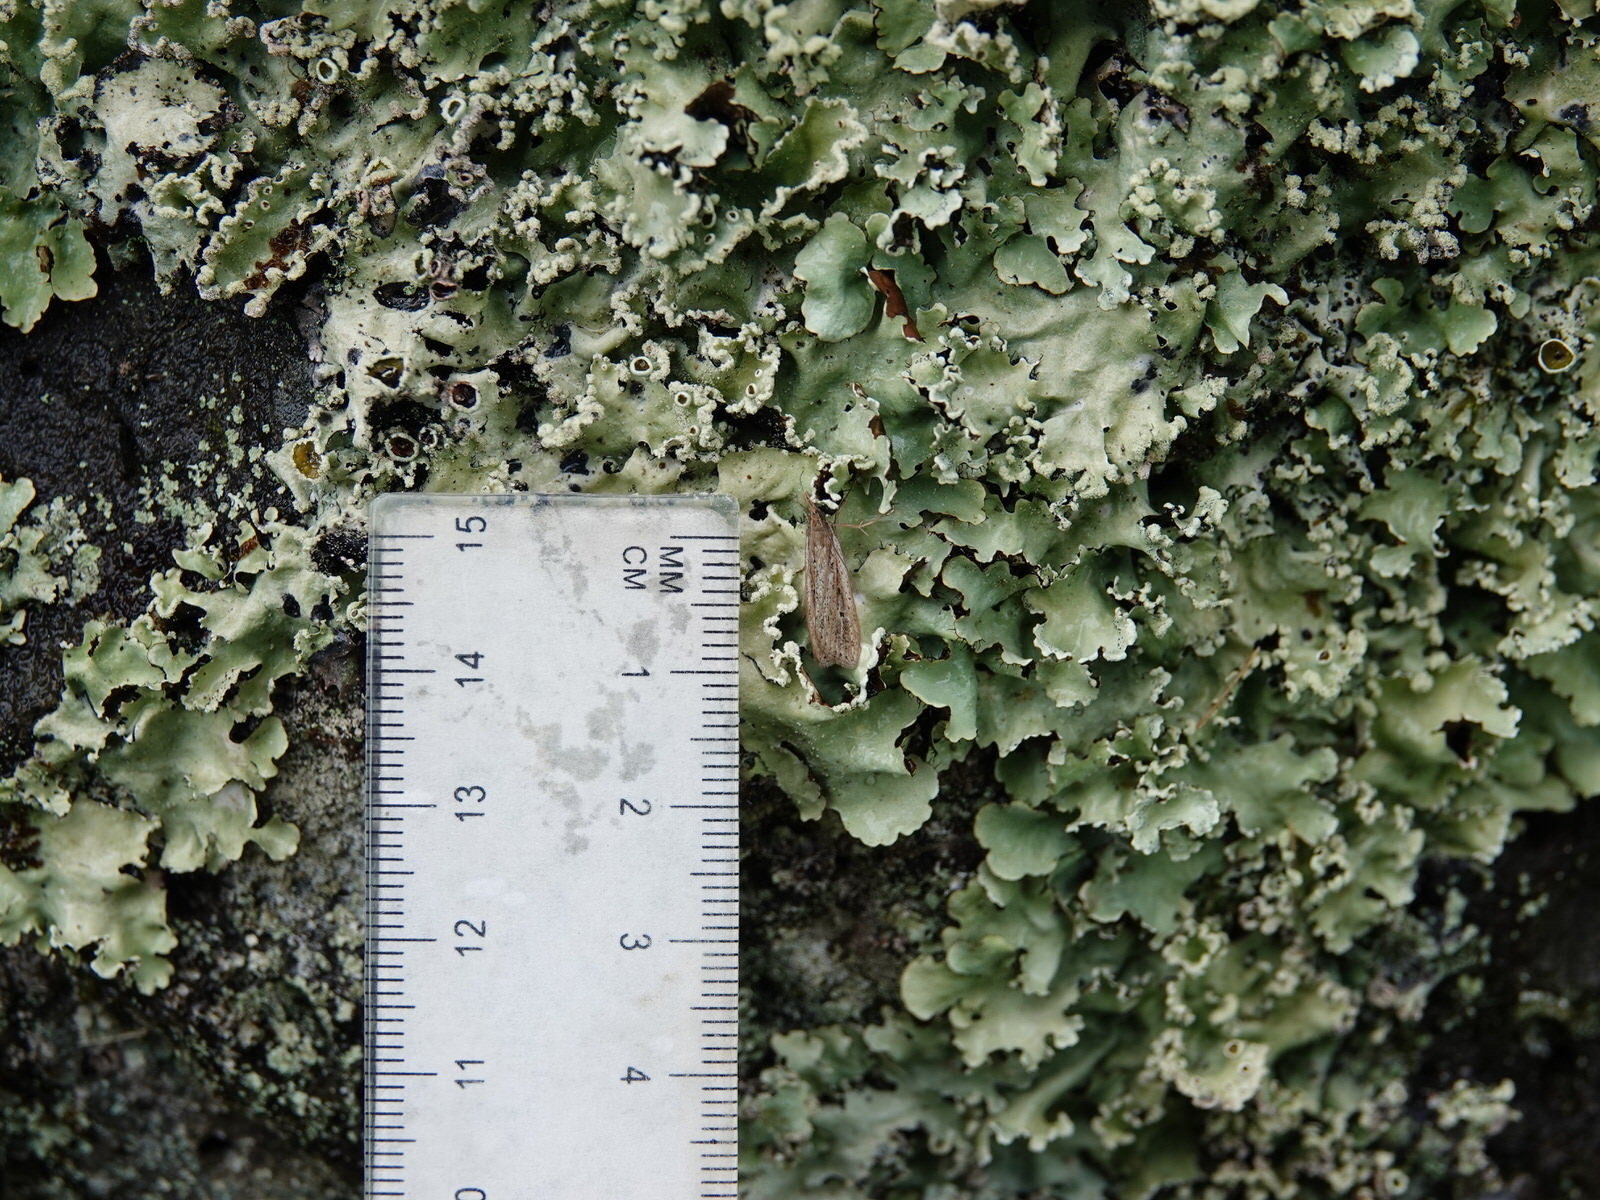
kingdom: Animalia
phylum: Arthropoda
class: Insecta
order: Lepidoptera
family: Crambidae
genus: Eudonia
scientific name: Eudonia sabulosella
